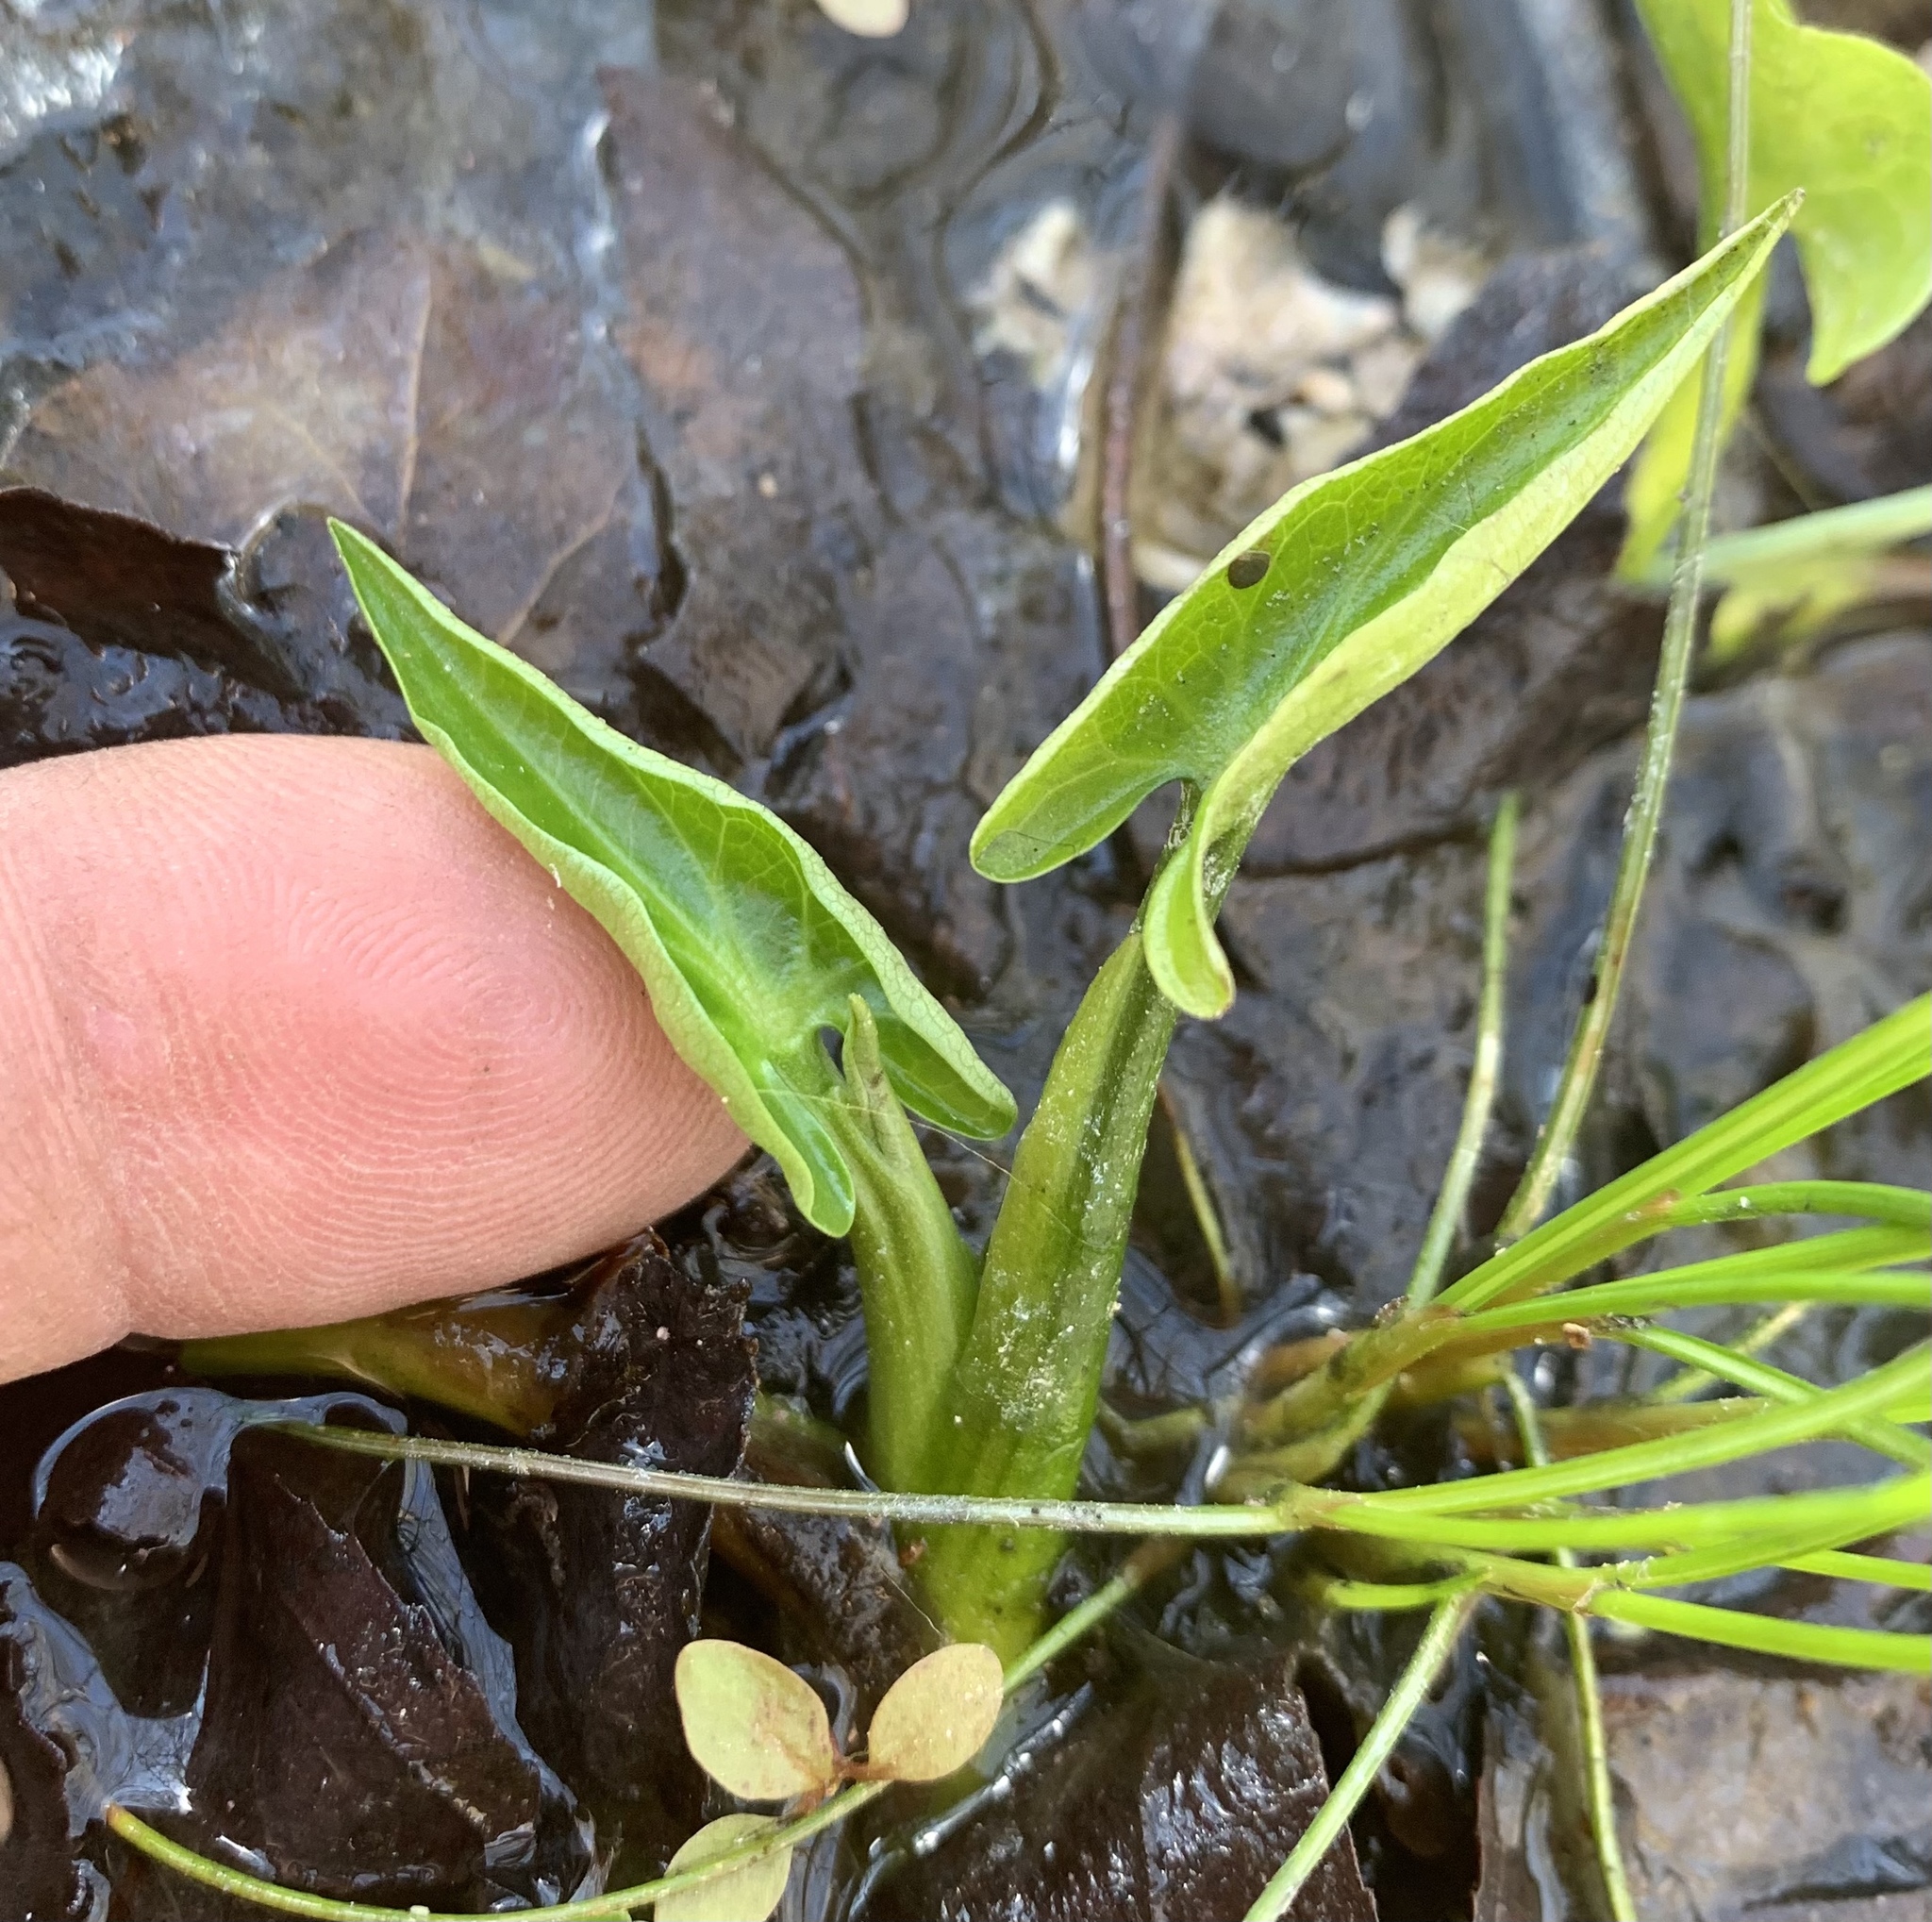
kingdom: Plantae
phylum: Tracheophyta
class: Magnoliopsida
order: Piperales
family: Saururaceae
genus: Saururus
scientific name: Saururus cernuus
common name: Lizard's-tail
